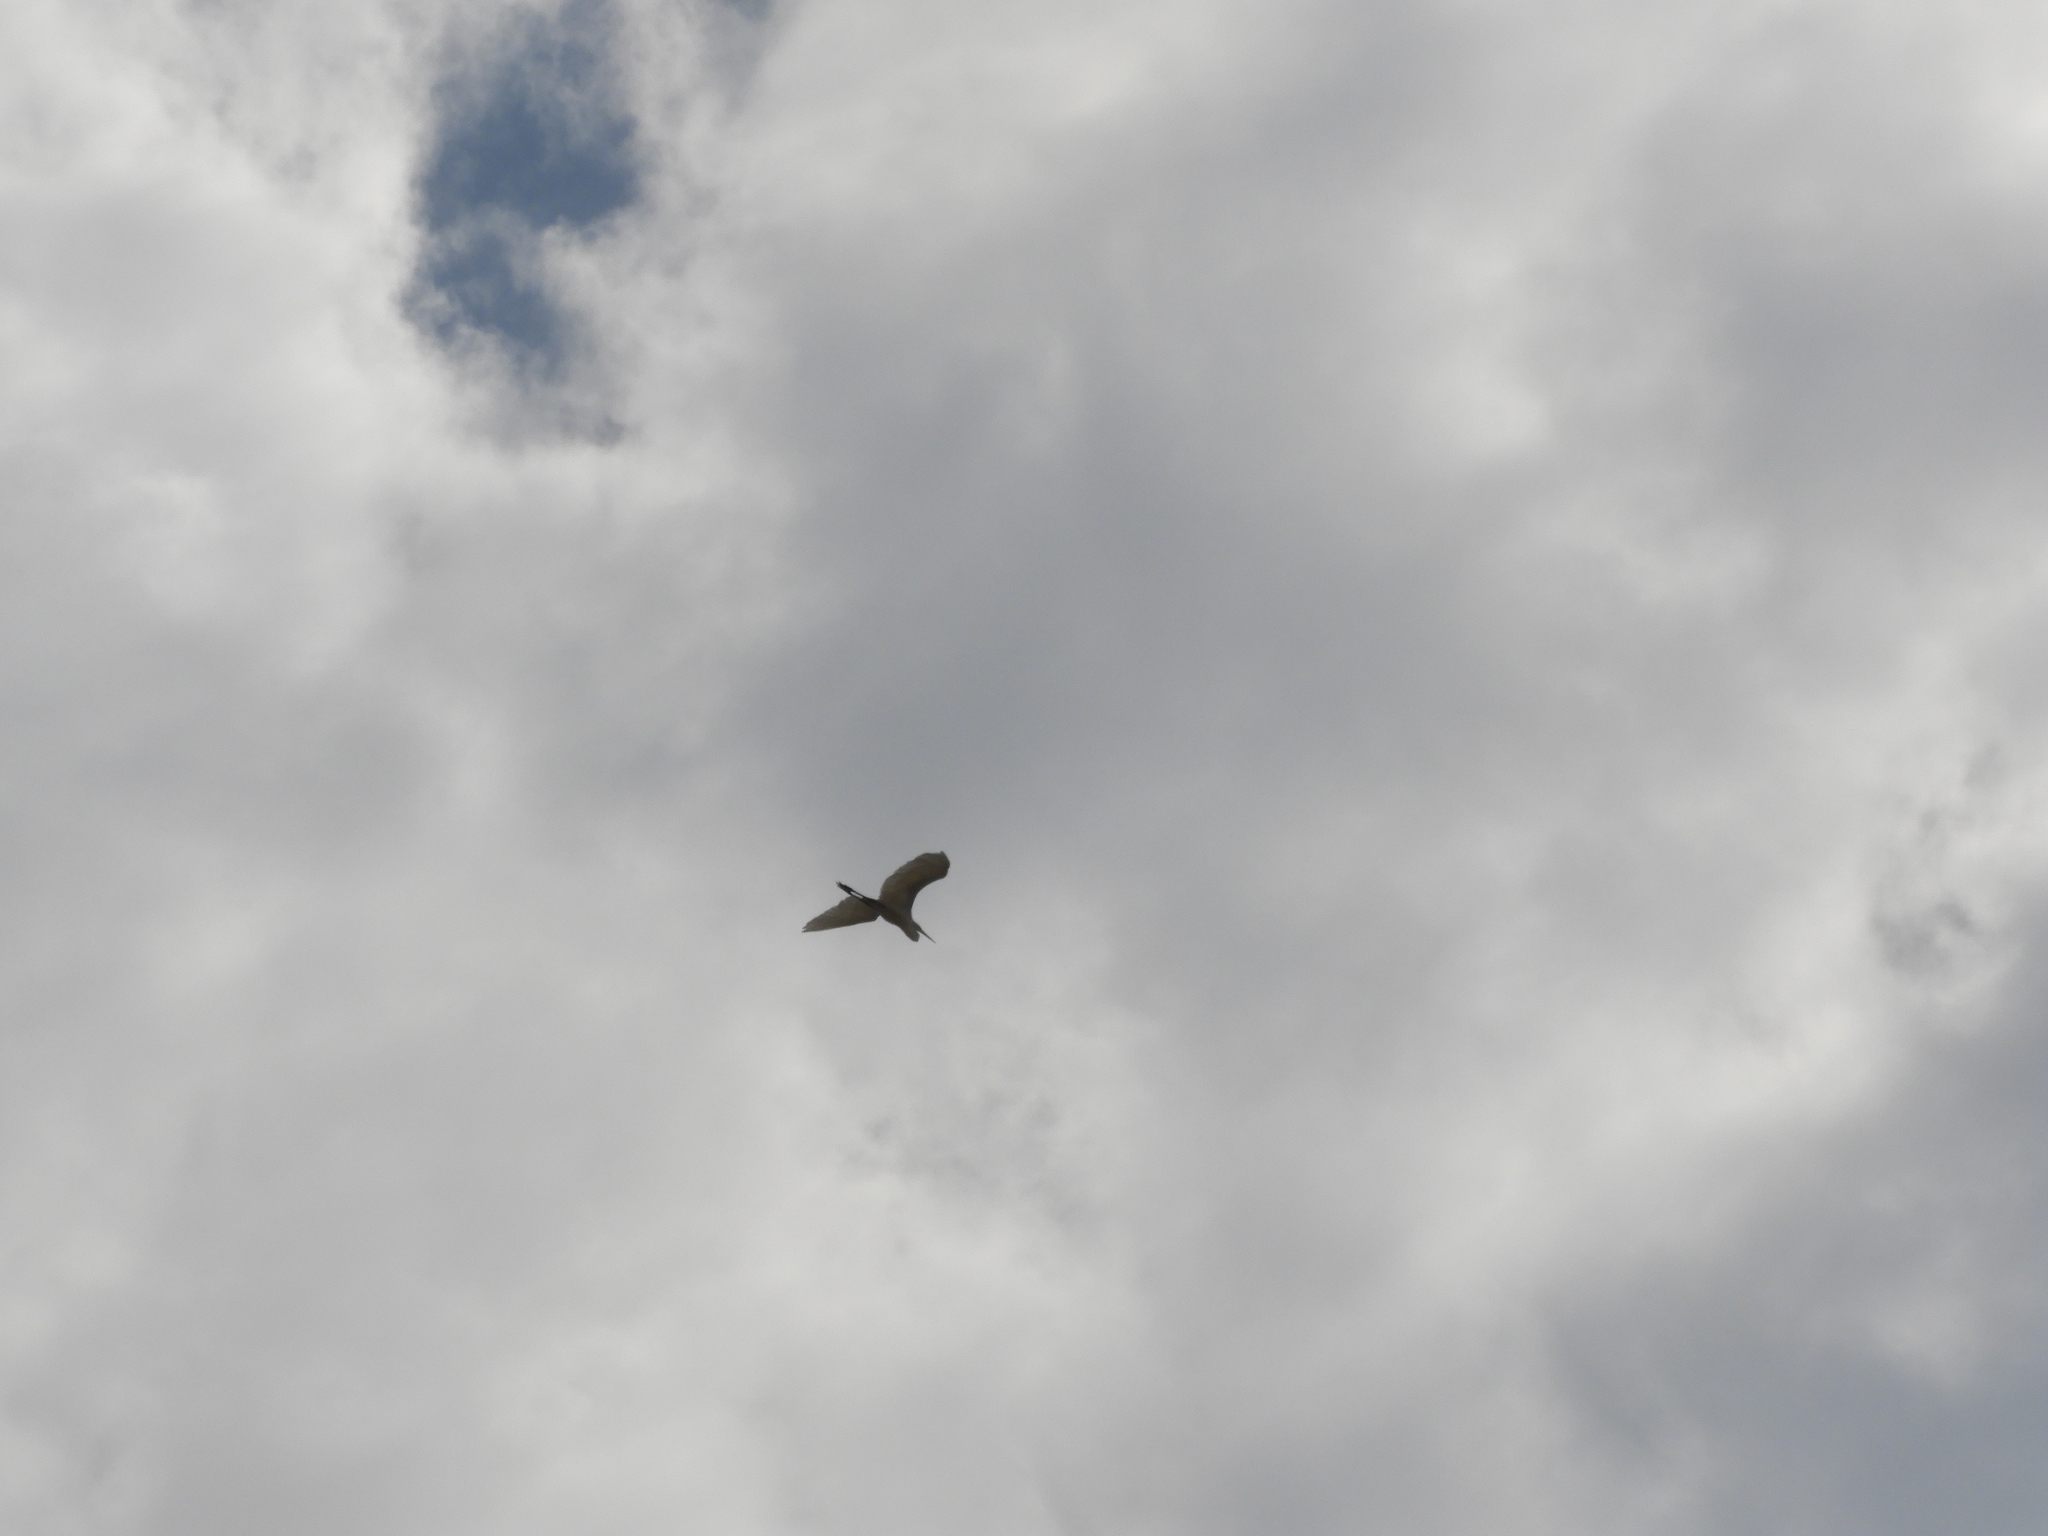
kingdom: Animalia
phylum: Chordata
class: Aves
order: Pelecaniformes
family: Ardeidae
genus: Ardea
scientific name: Ardea alba
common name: Great egret
